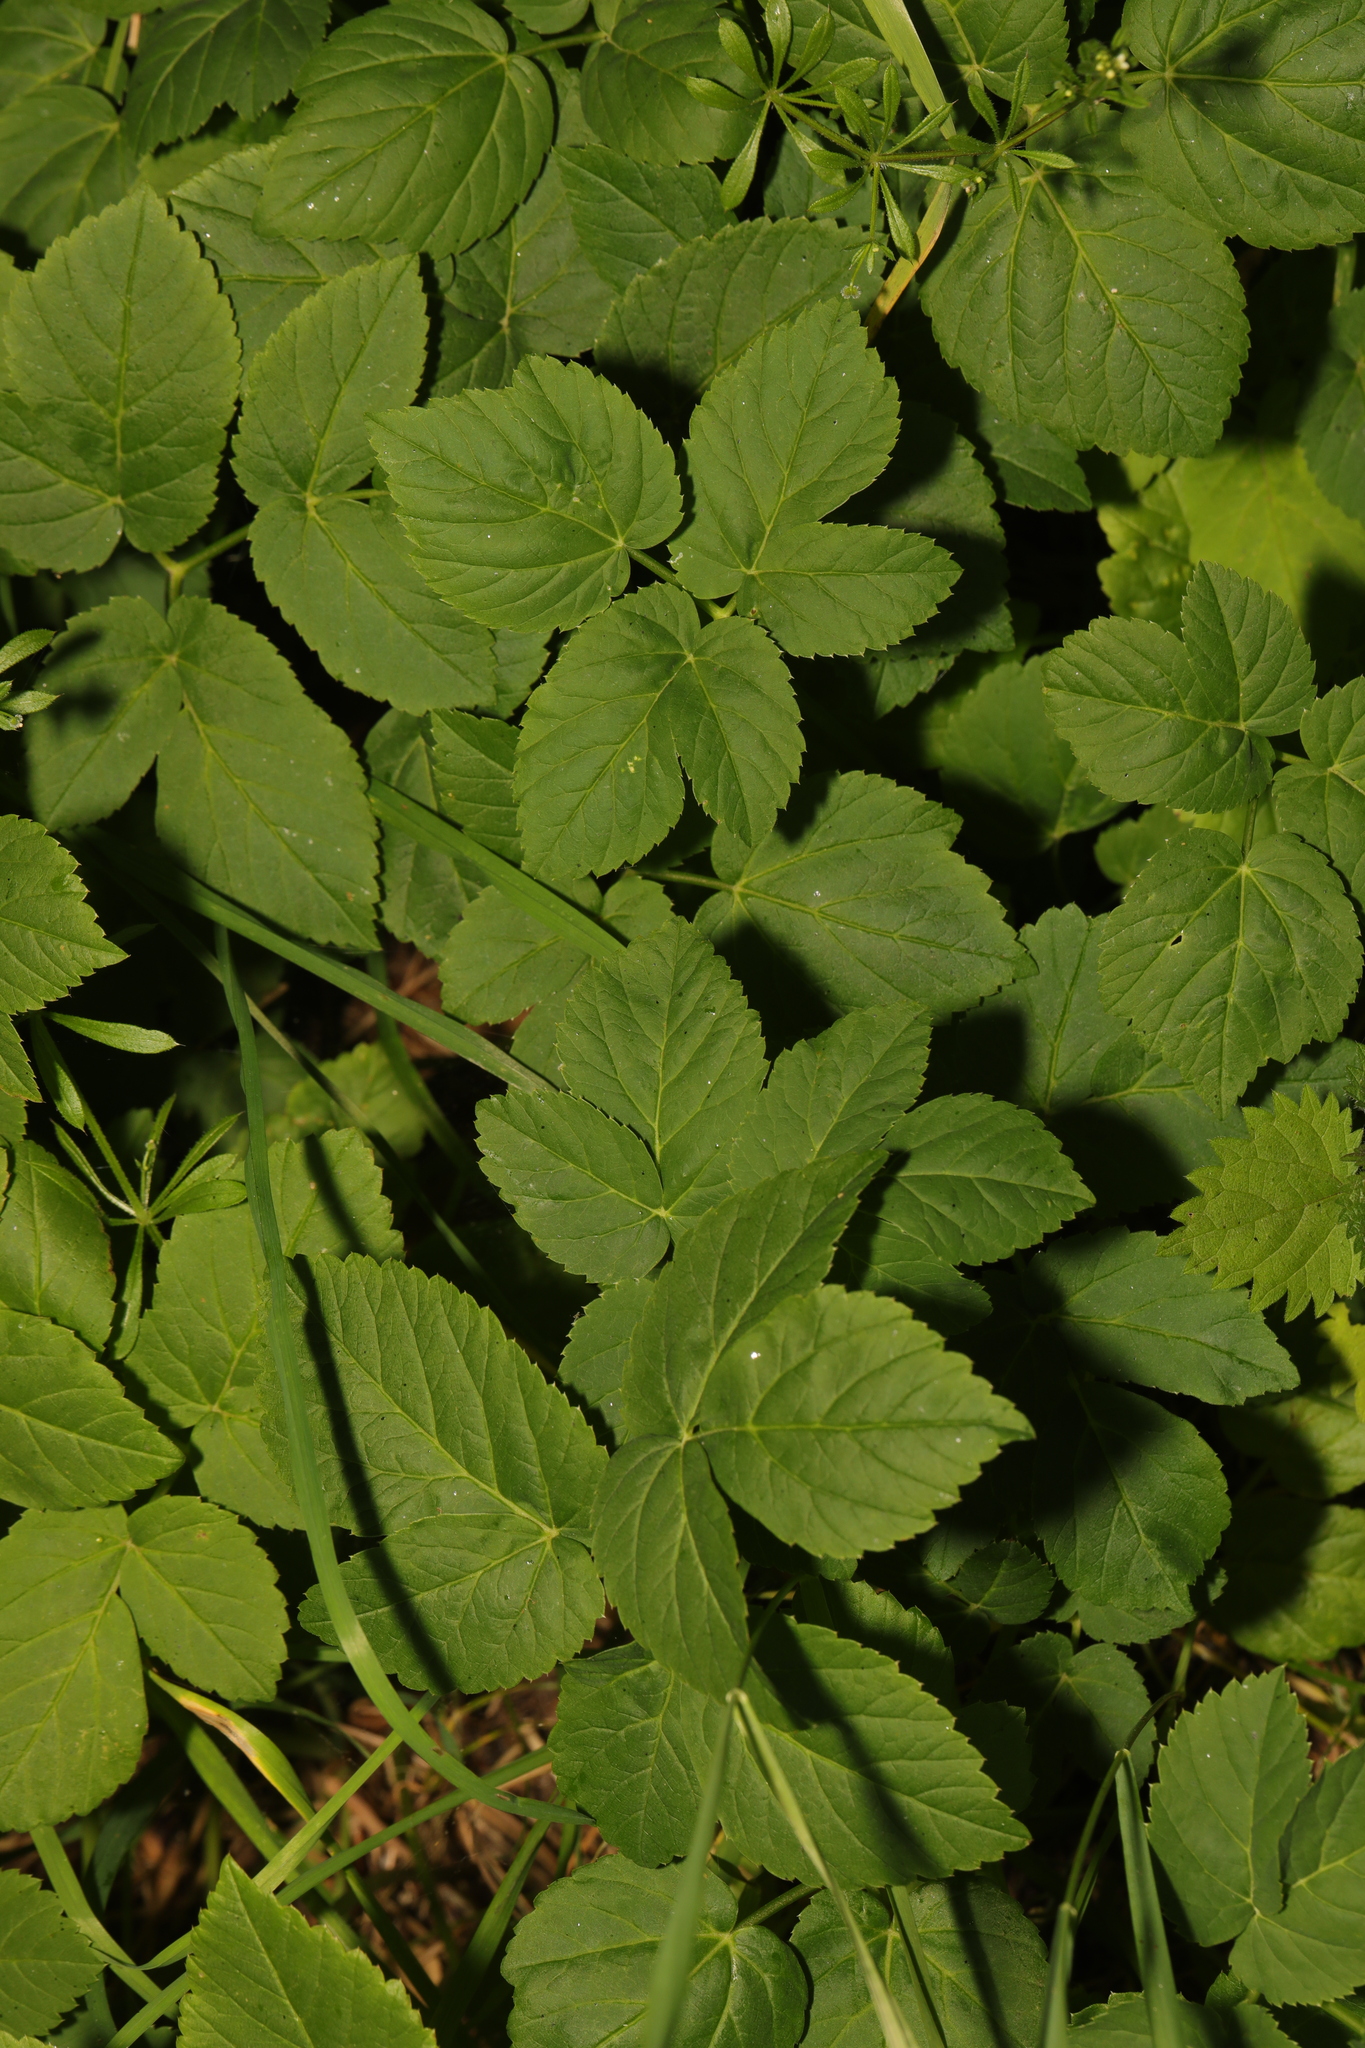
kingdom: Plantae
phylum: Tracheophyta
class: Magnoliopsida
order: Apiales
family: Apiaceae
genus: Aegopodium
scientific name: Aegopodium podagraria
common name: Ground-elder
